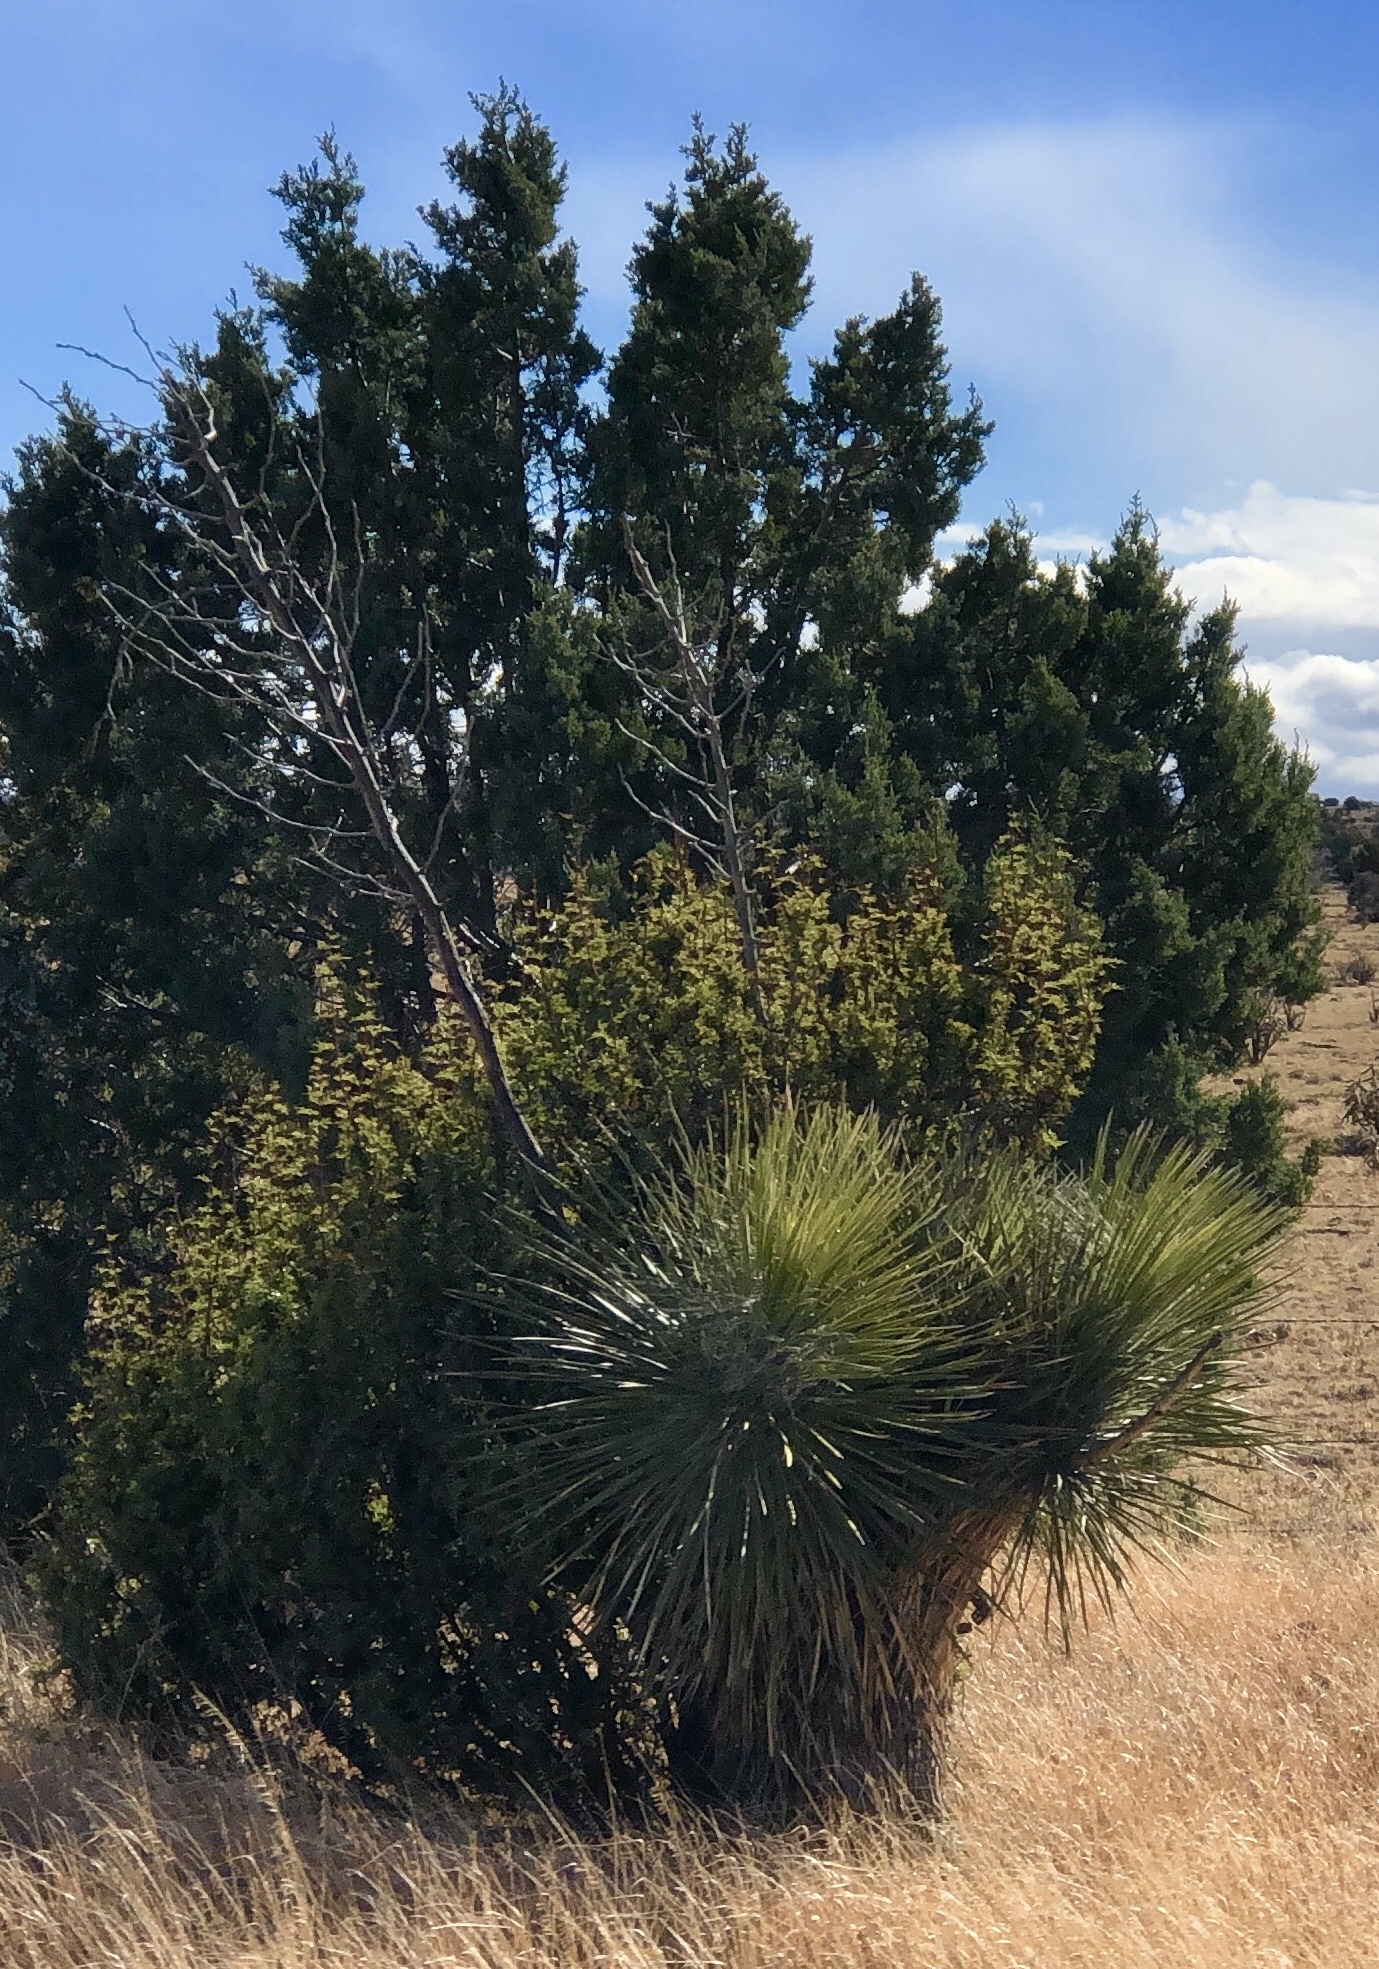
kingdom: Plantae
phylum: Tracheophyta
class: Liliopsida
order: Asparagales
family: Asparagaceae
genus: Yucca
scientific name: Yucca elata
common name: Palmella
